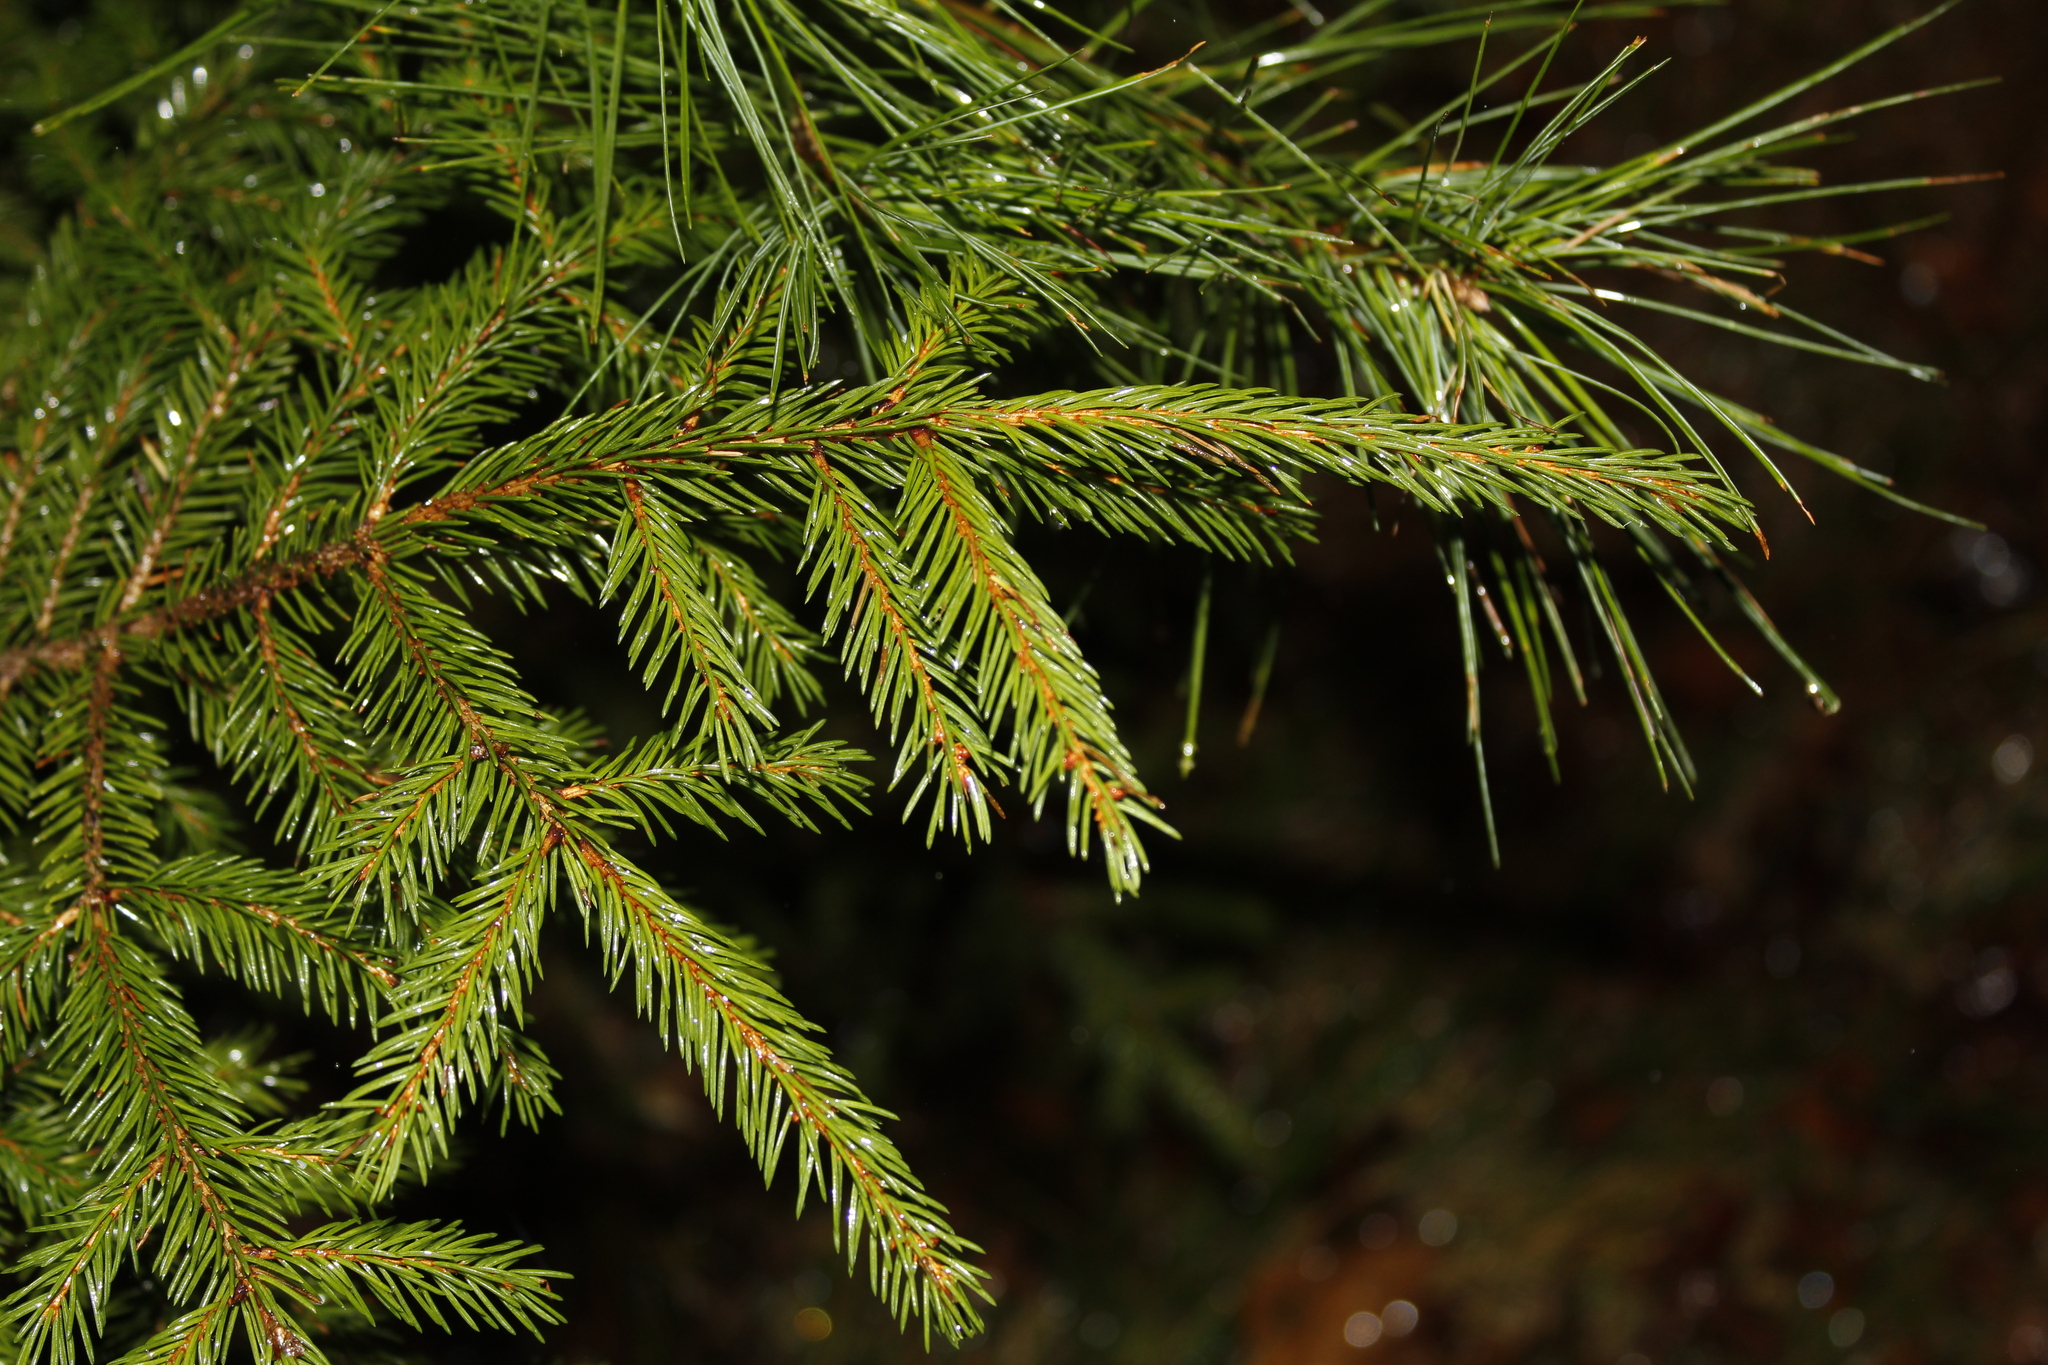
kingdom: Plantae
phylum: Tracheophyta
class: Pinopsida
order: Pinales
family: Pinaceae
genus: Picea
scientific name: Picea rubens
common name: Red spruce
